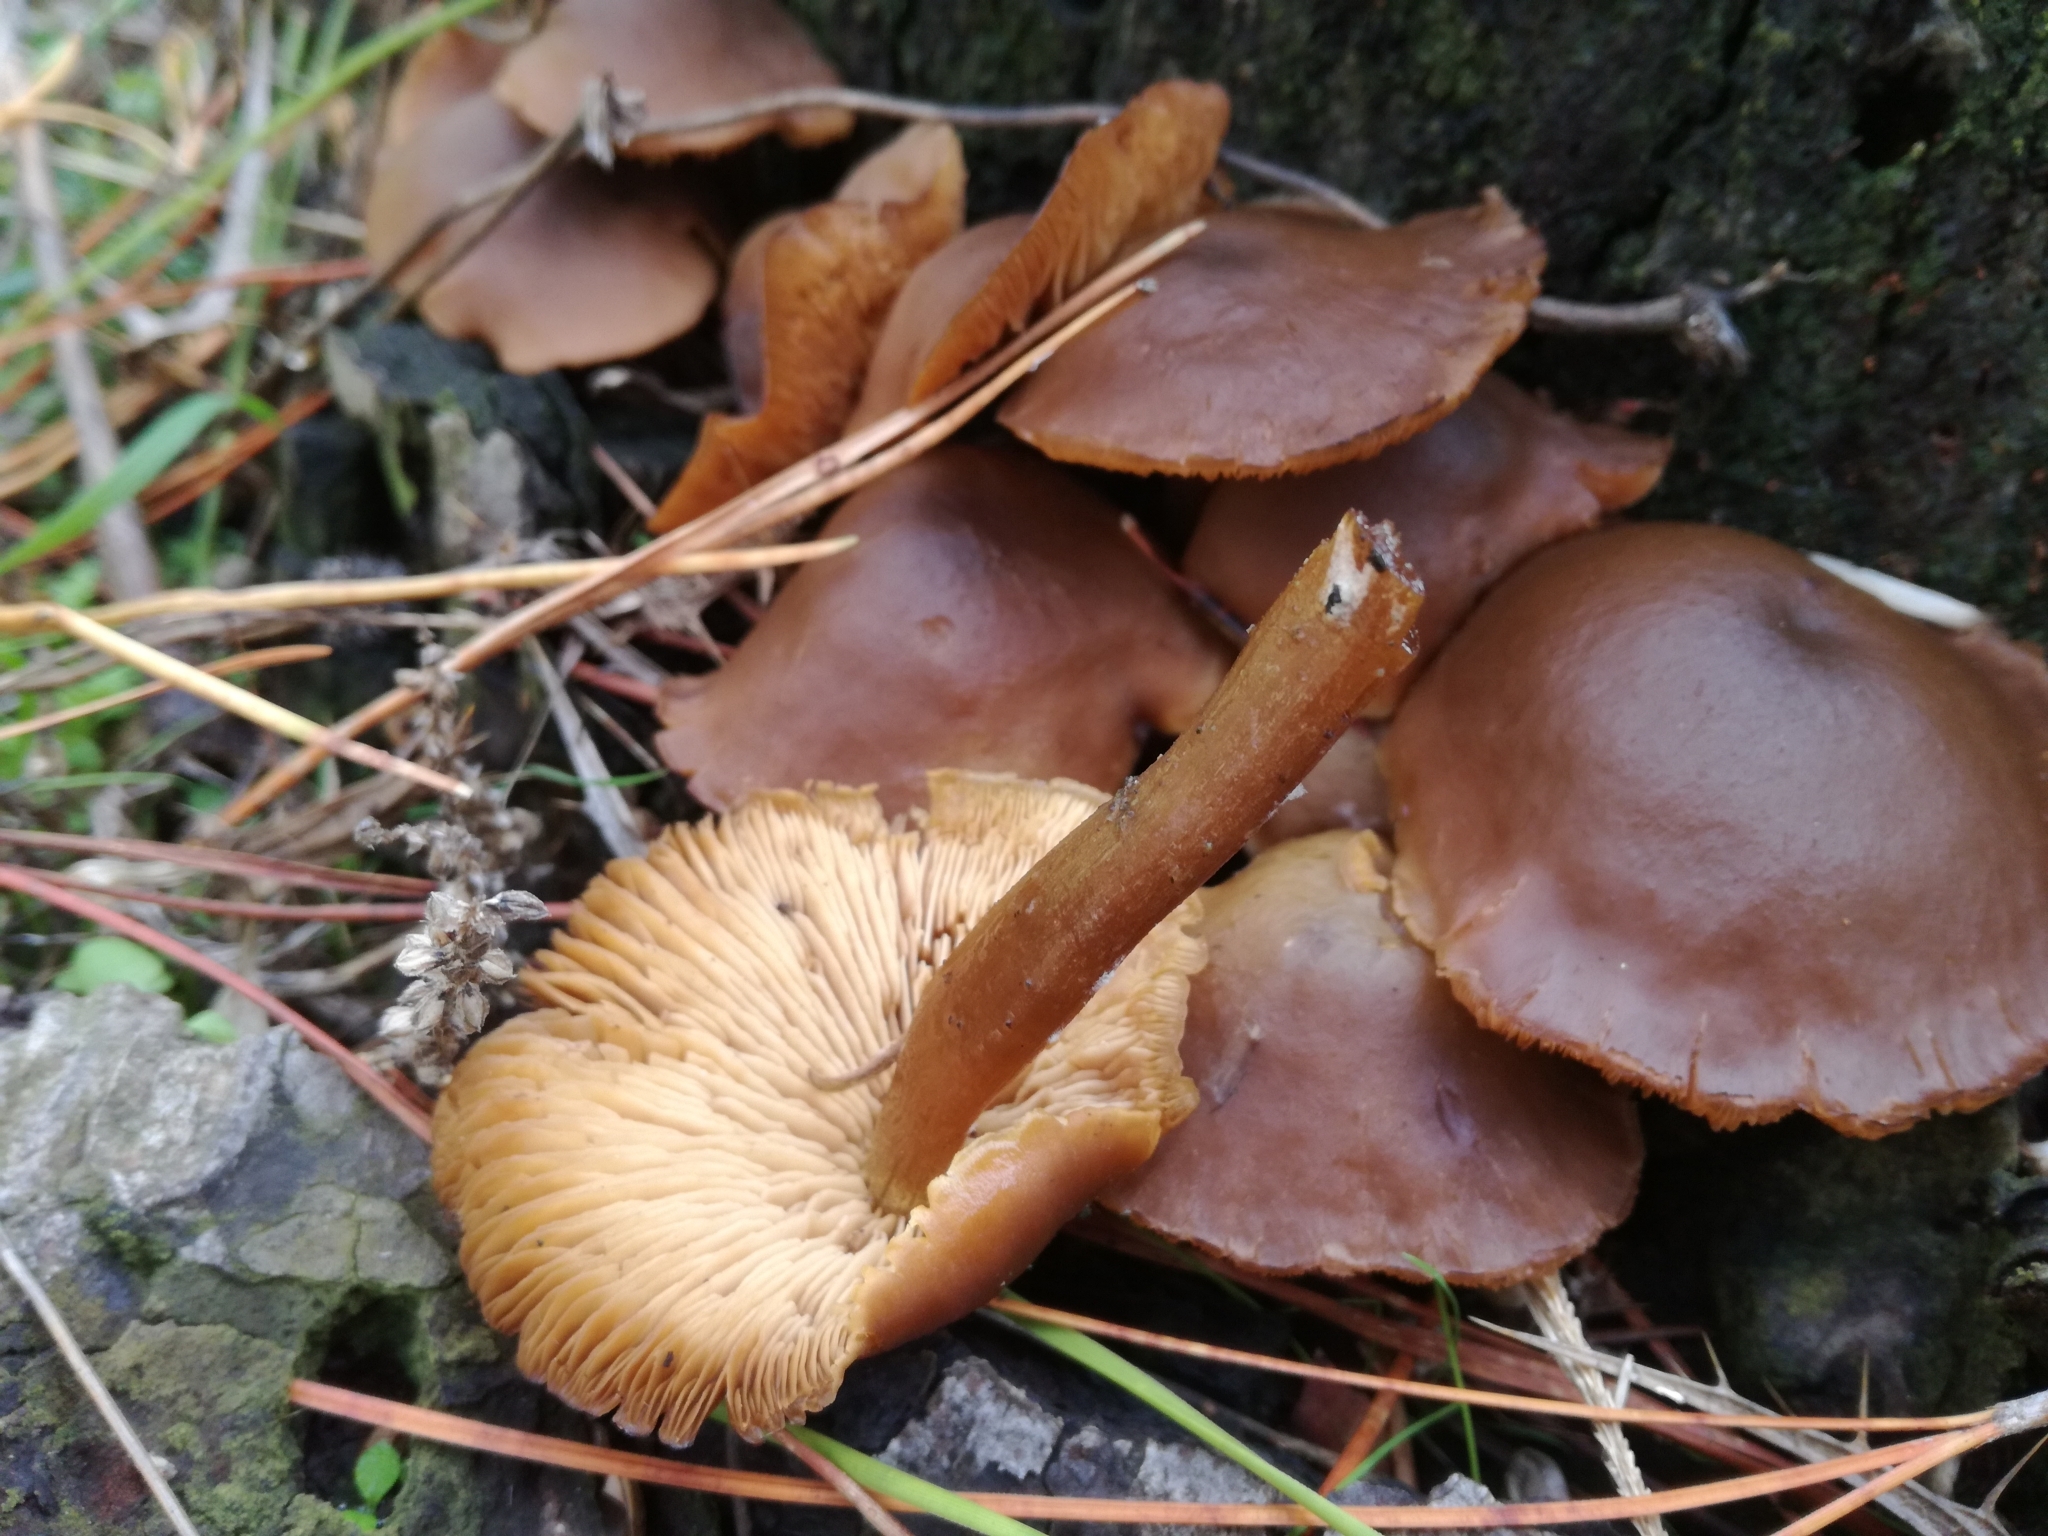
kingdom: Fungi
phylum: Basidiomycota
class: Agaricomycetes
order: Agaricales
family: Callistosporiaceae
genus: Callistosporium
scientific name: Callistosporium luteo-olivaceum
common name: Olive lute
